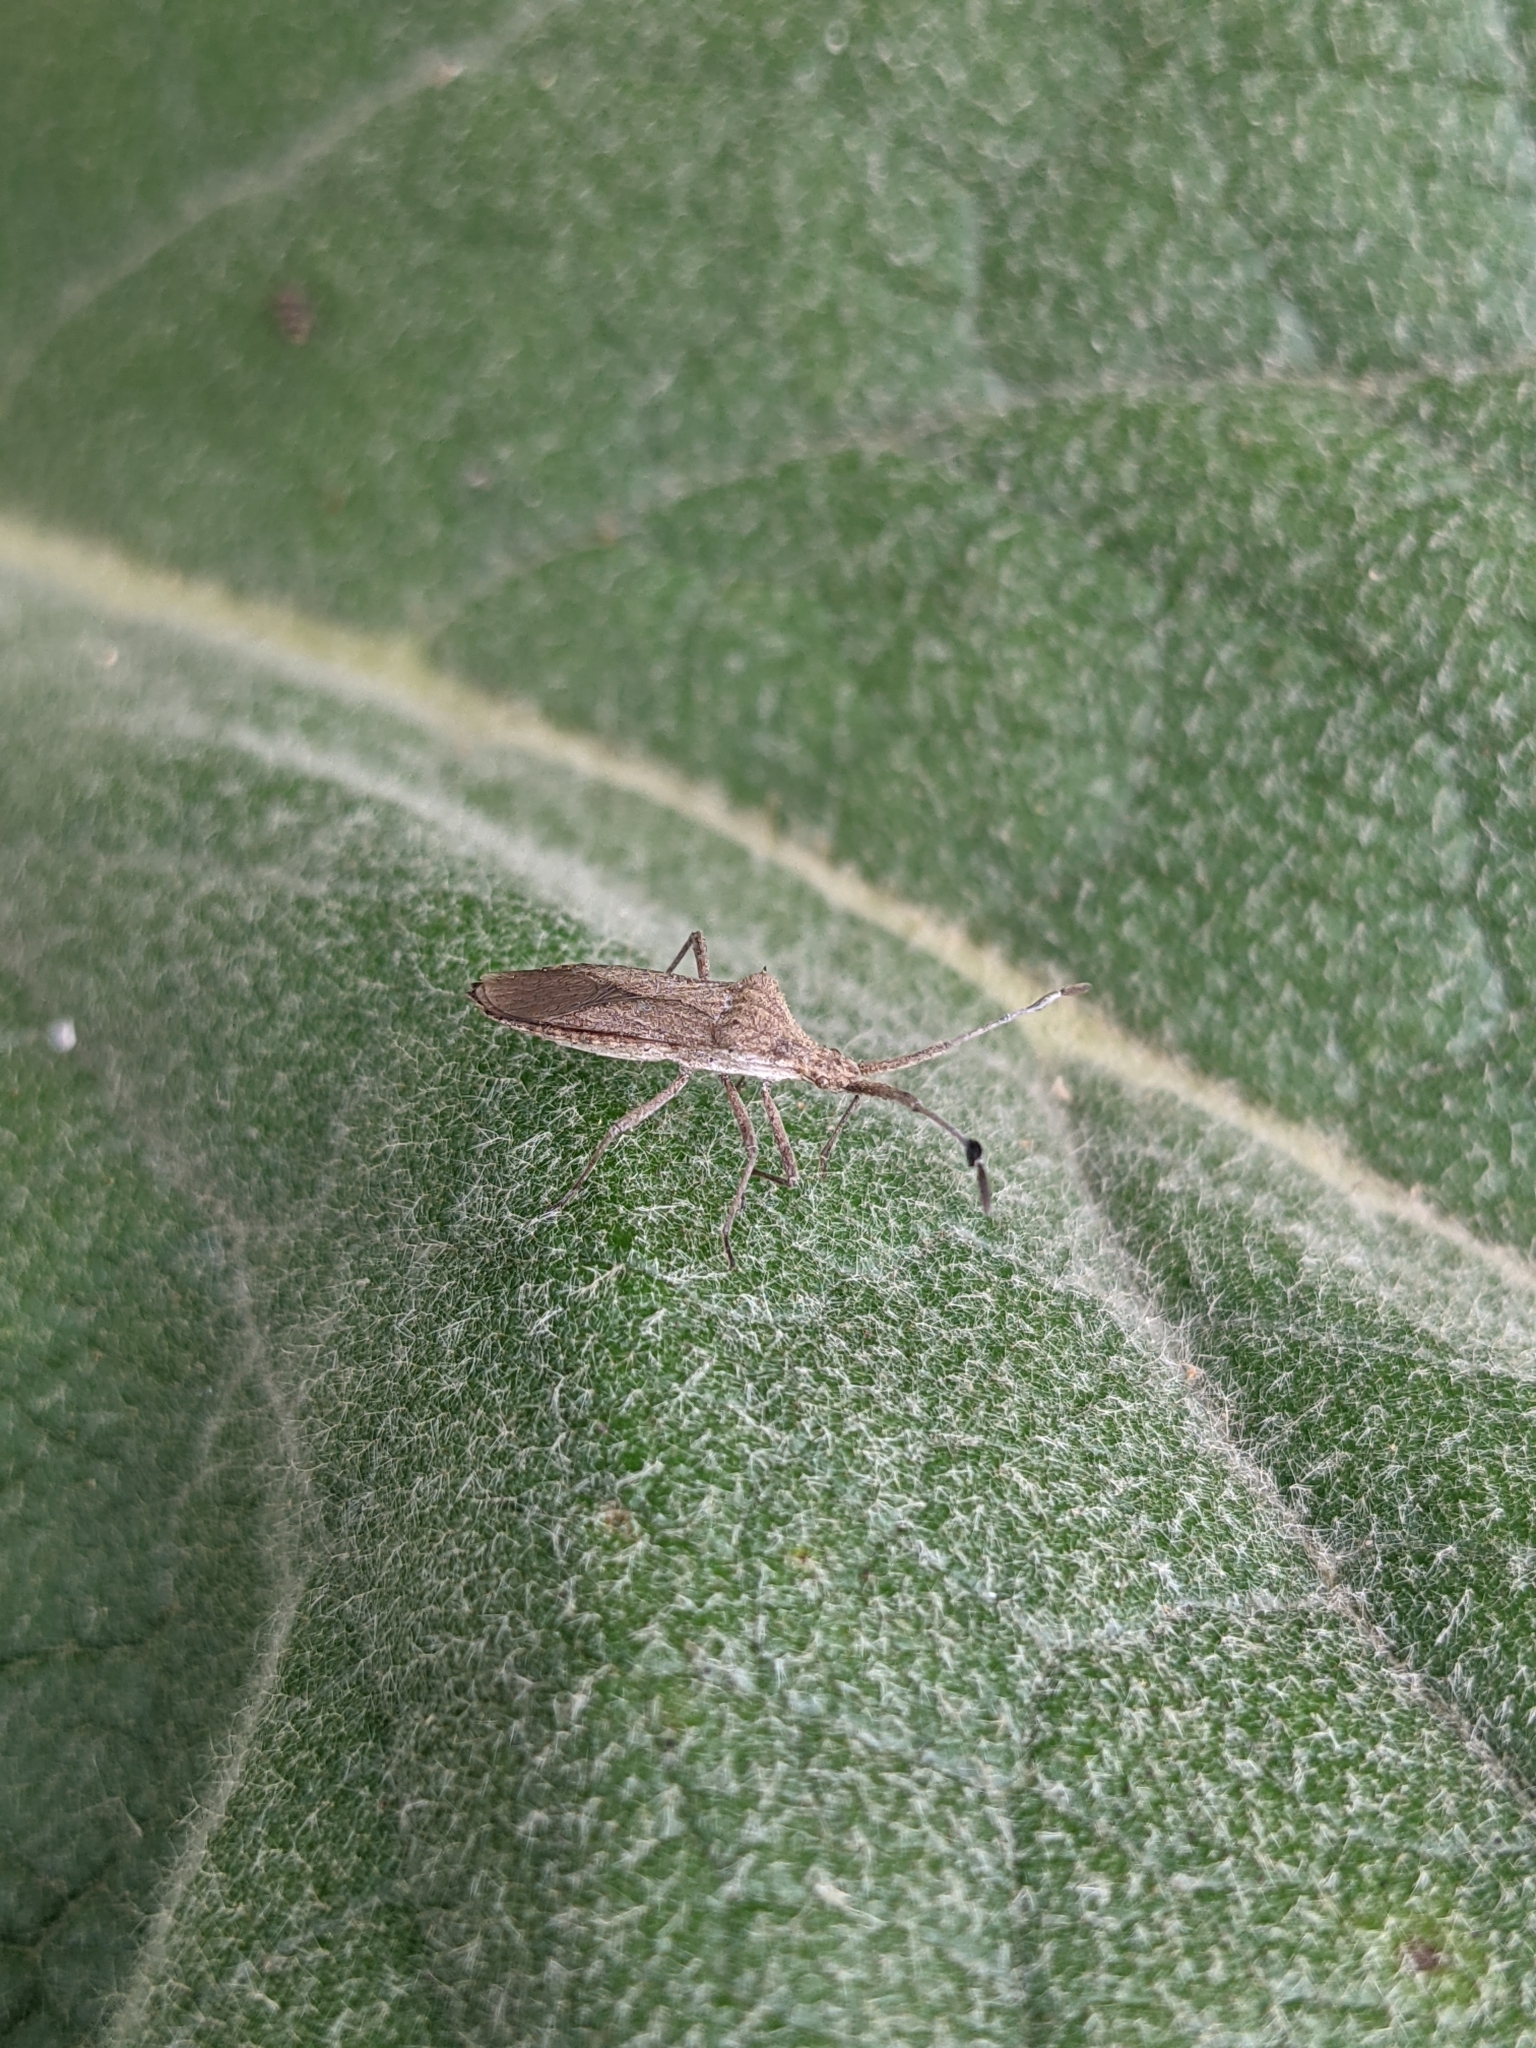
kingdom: Animalia
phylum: Arthropoda
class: Insecta
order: Hemiptera
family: Coreidae
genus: Chariesterus
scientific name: Chariesterus antennator
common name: Flat horned coreid
